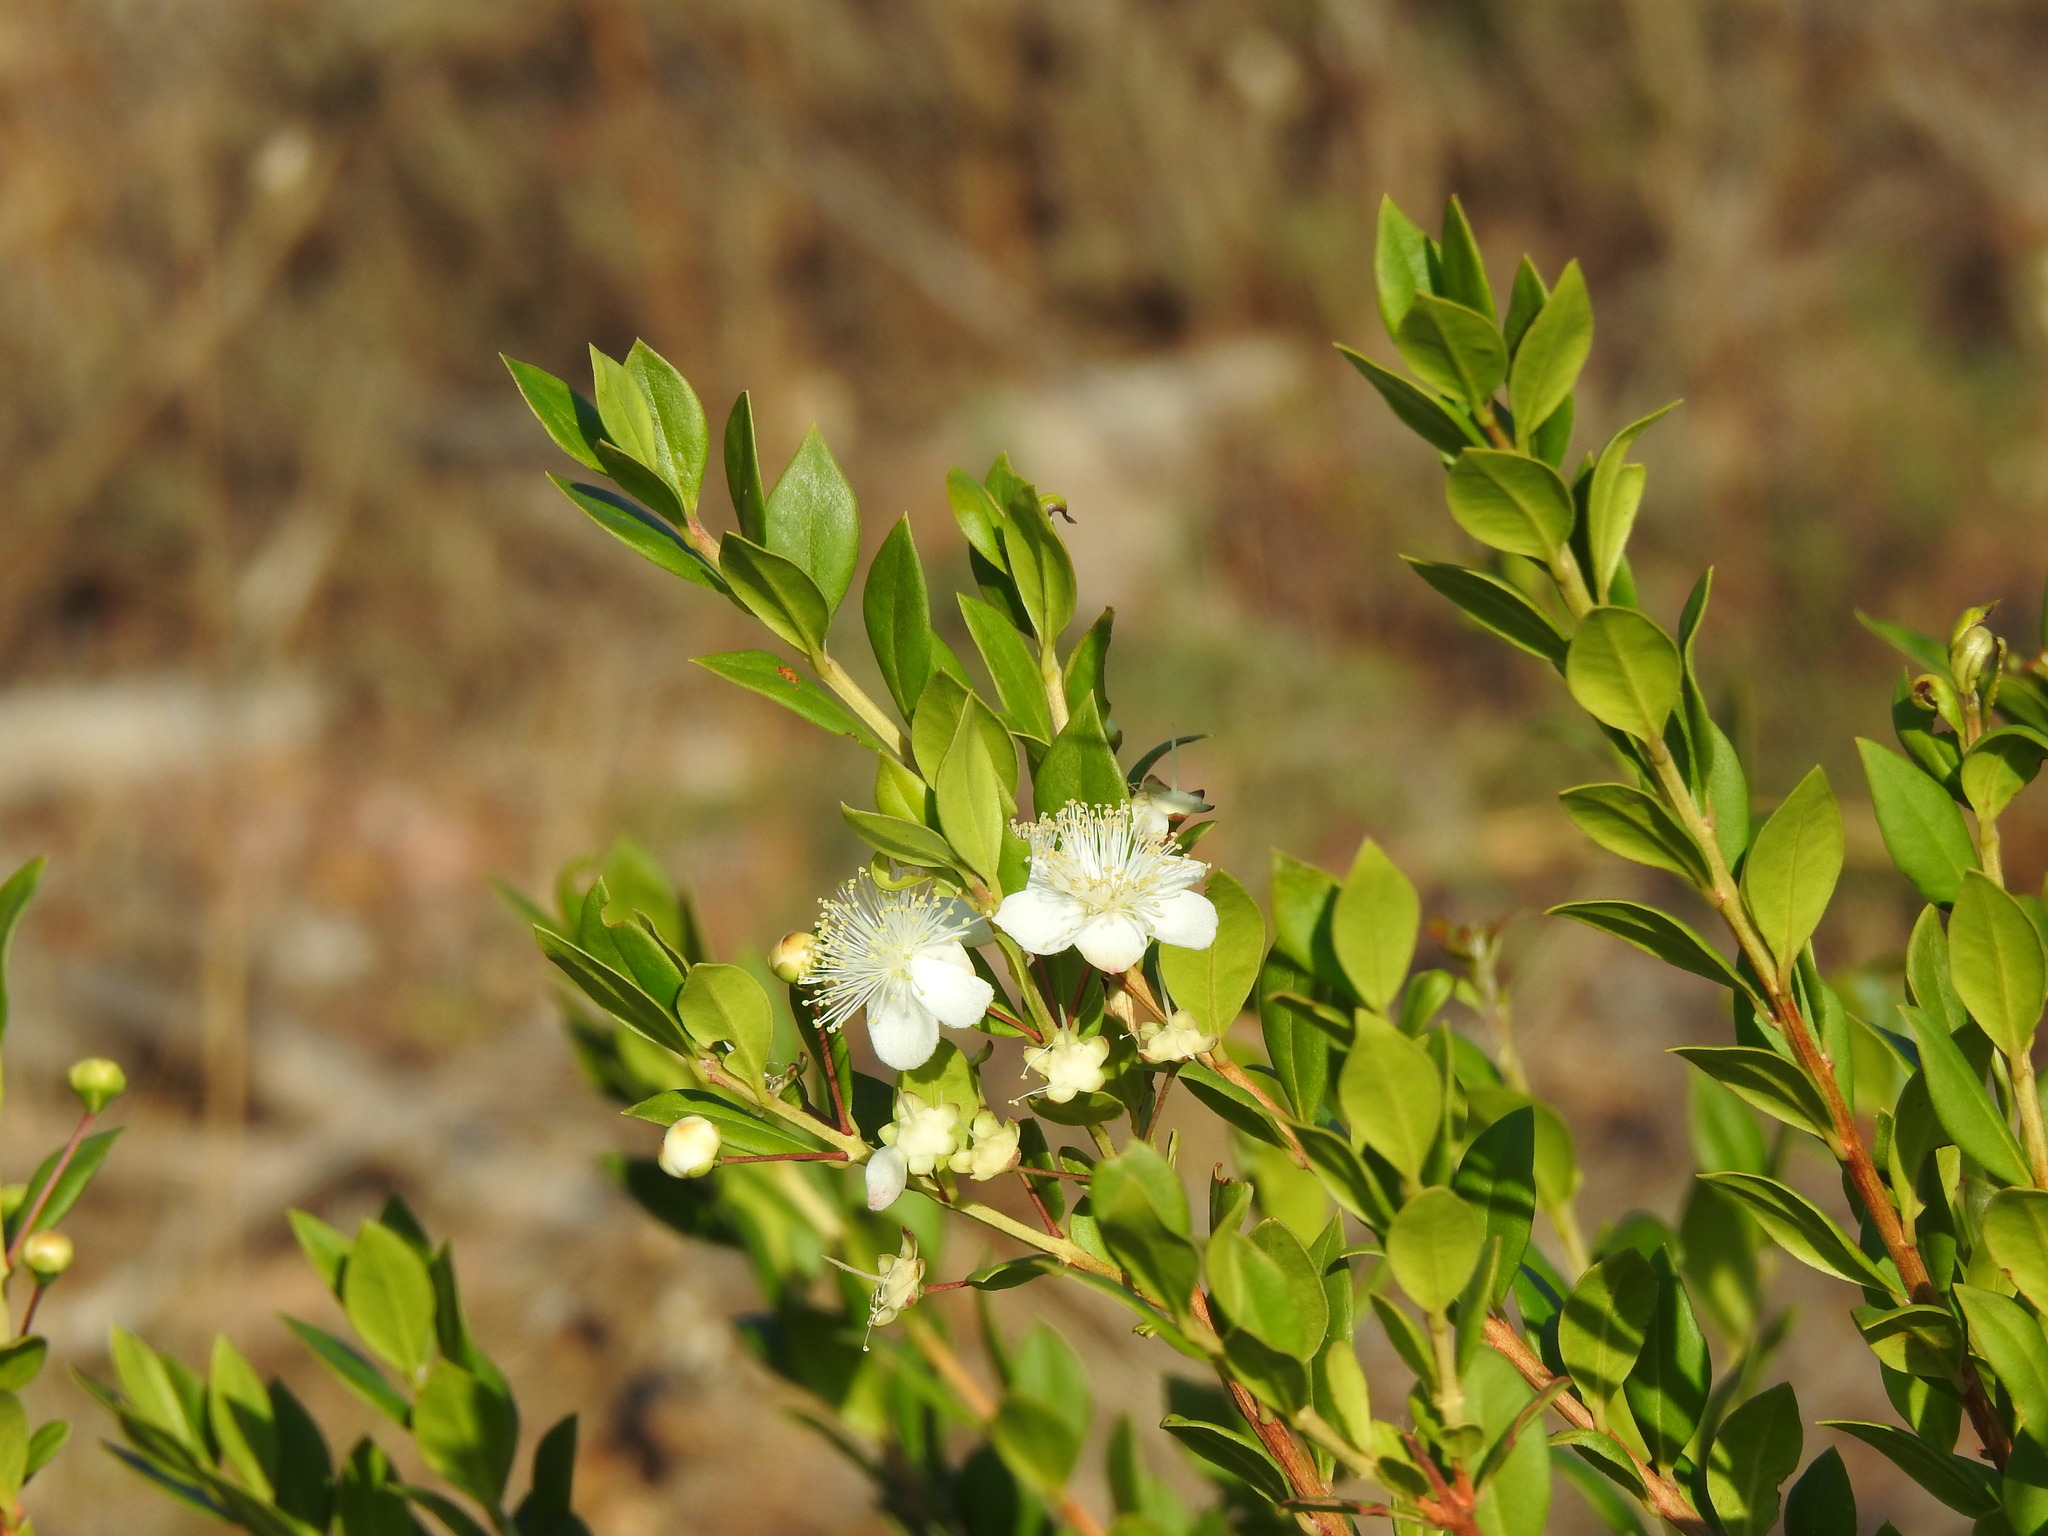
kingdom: Plantae
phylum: Tracheophyta
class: Magnoliopsida
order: Myrtales
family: Myrtaceae
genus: Myrtus
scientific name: Myrtus communis
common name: Myrtle
